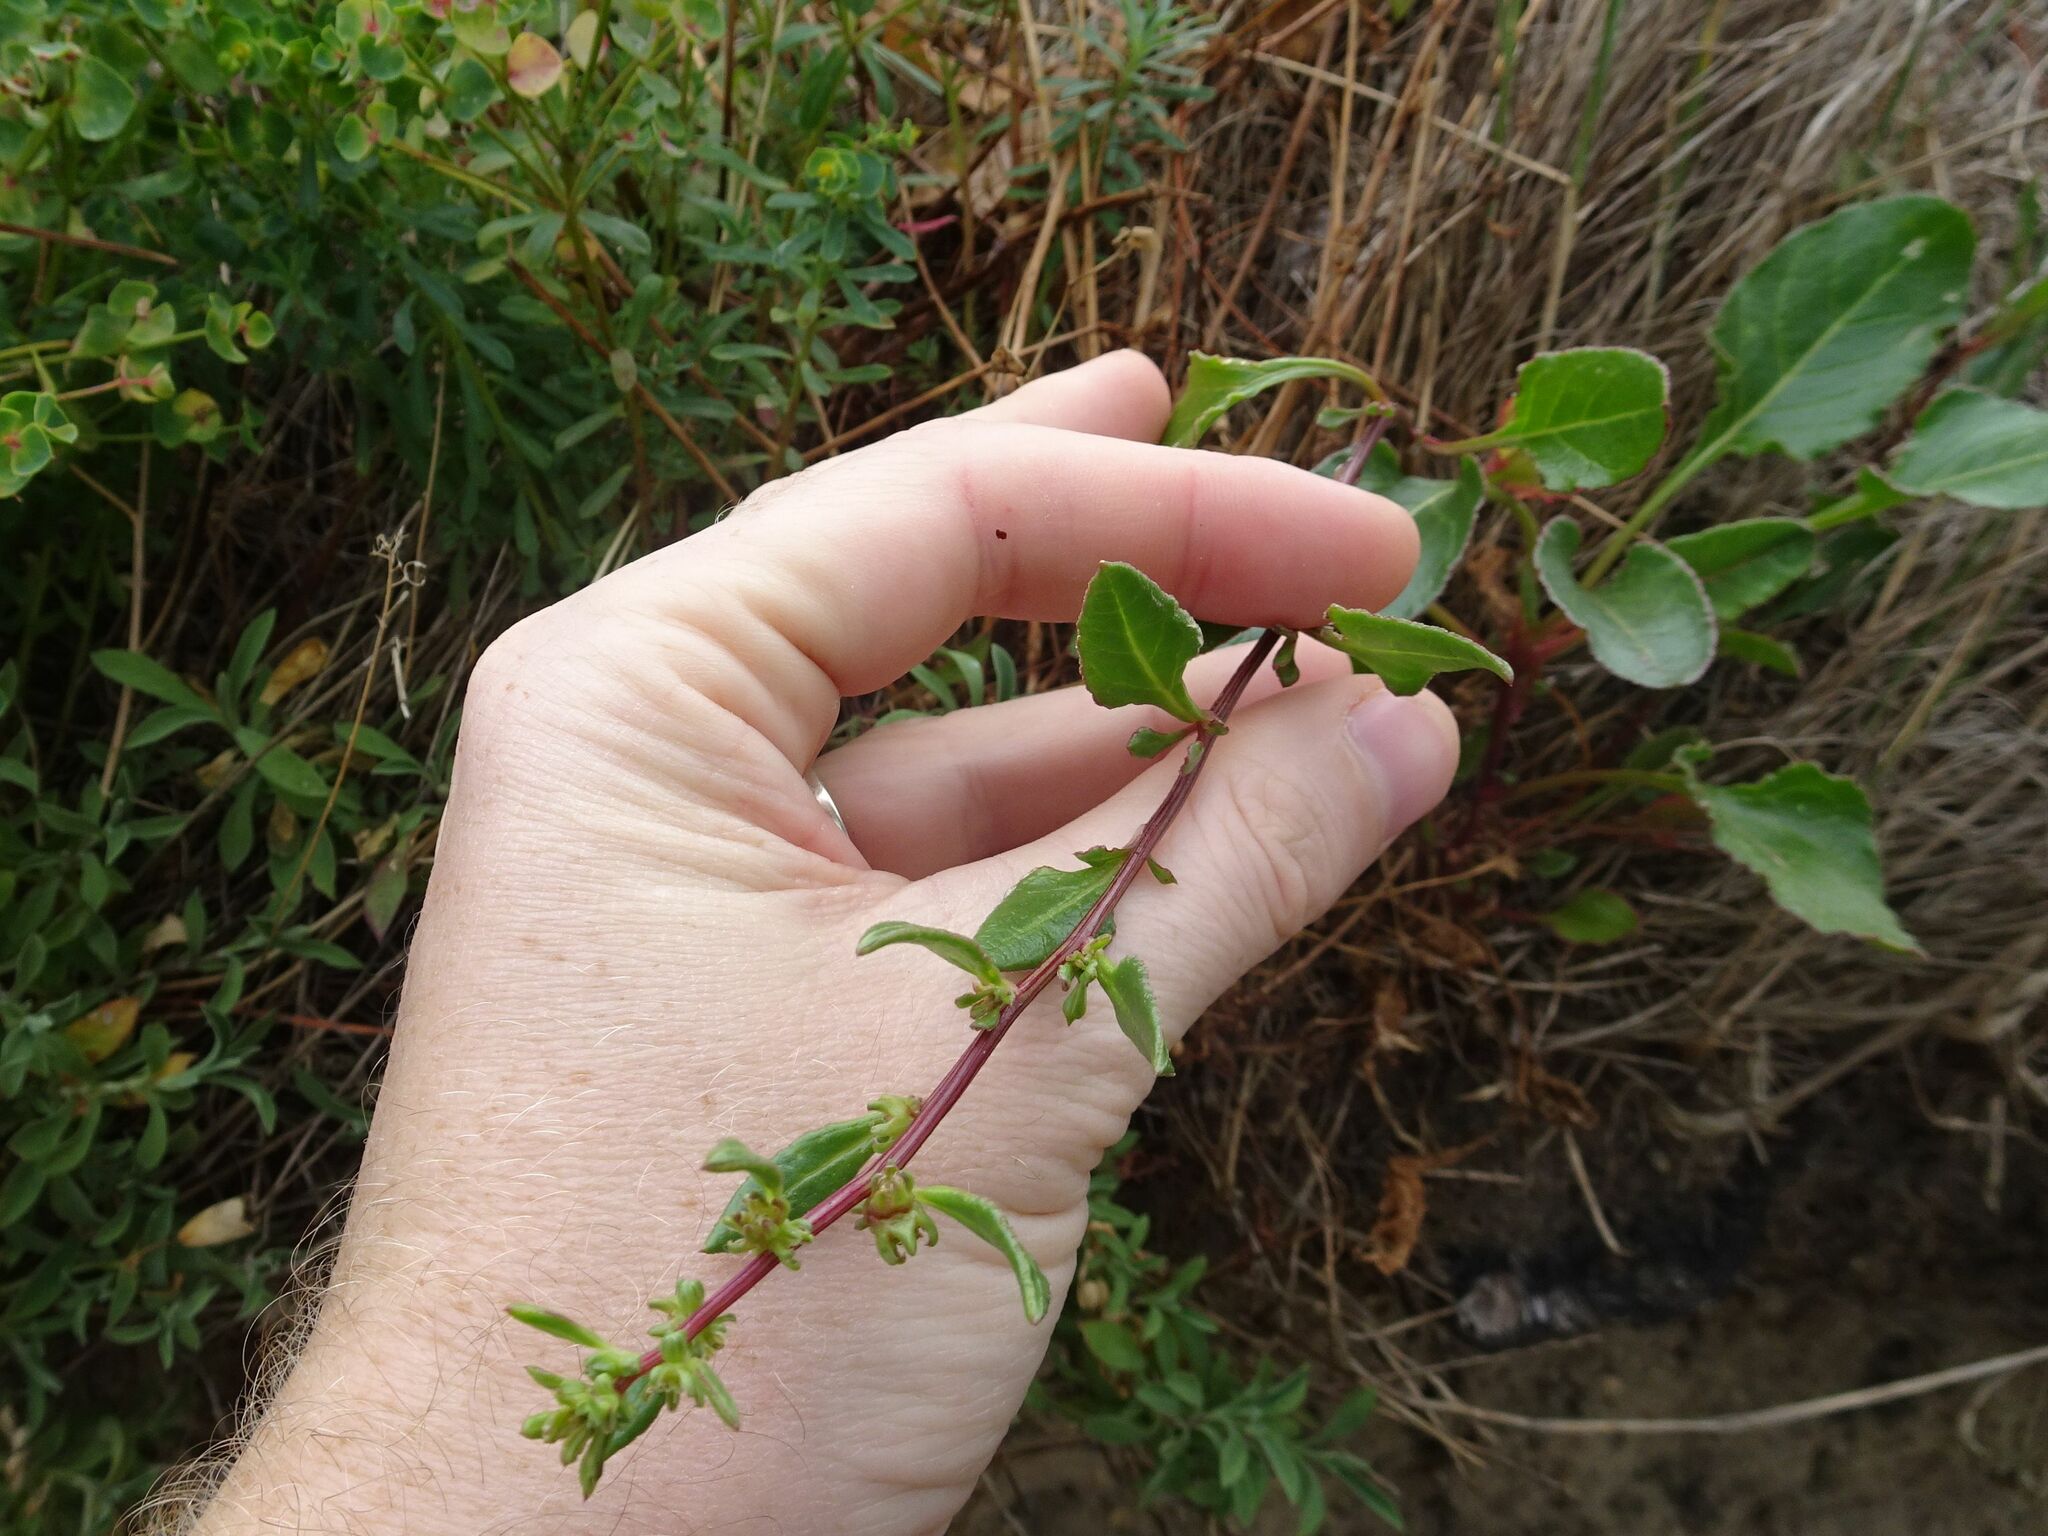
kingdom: Plantae
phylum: Tracheophyta
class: Magnoliopsida
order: Caryophyllales
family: Amaranthaceae
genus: Beta
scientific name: Beta vulgaris
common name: Beet
